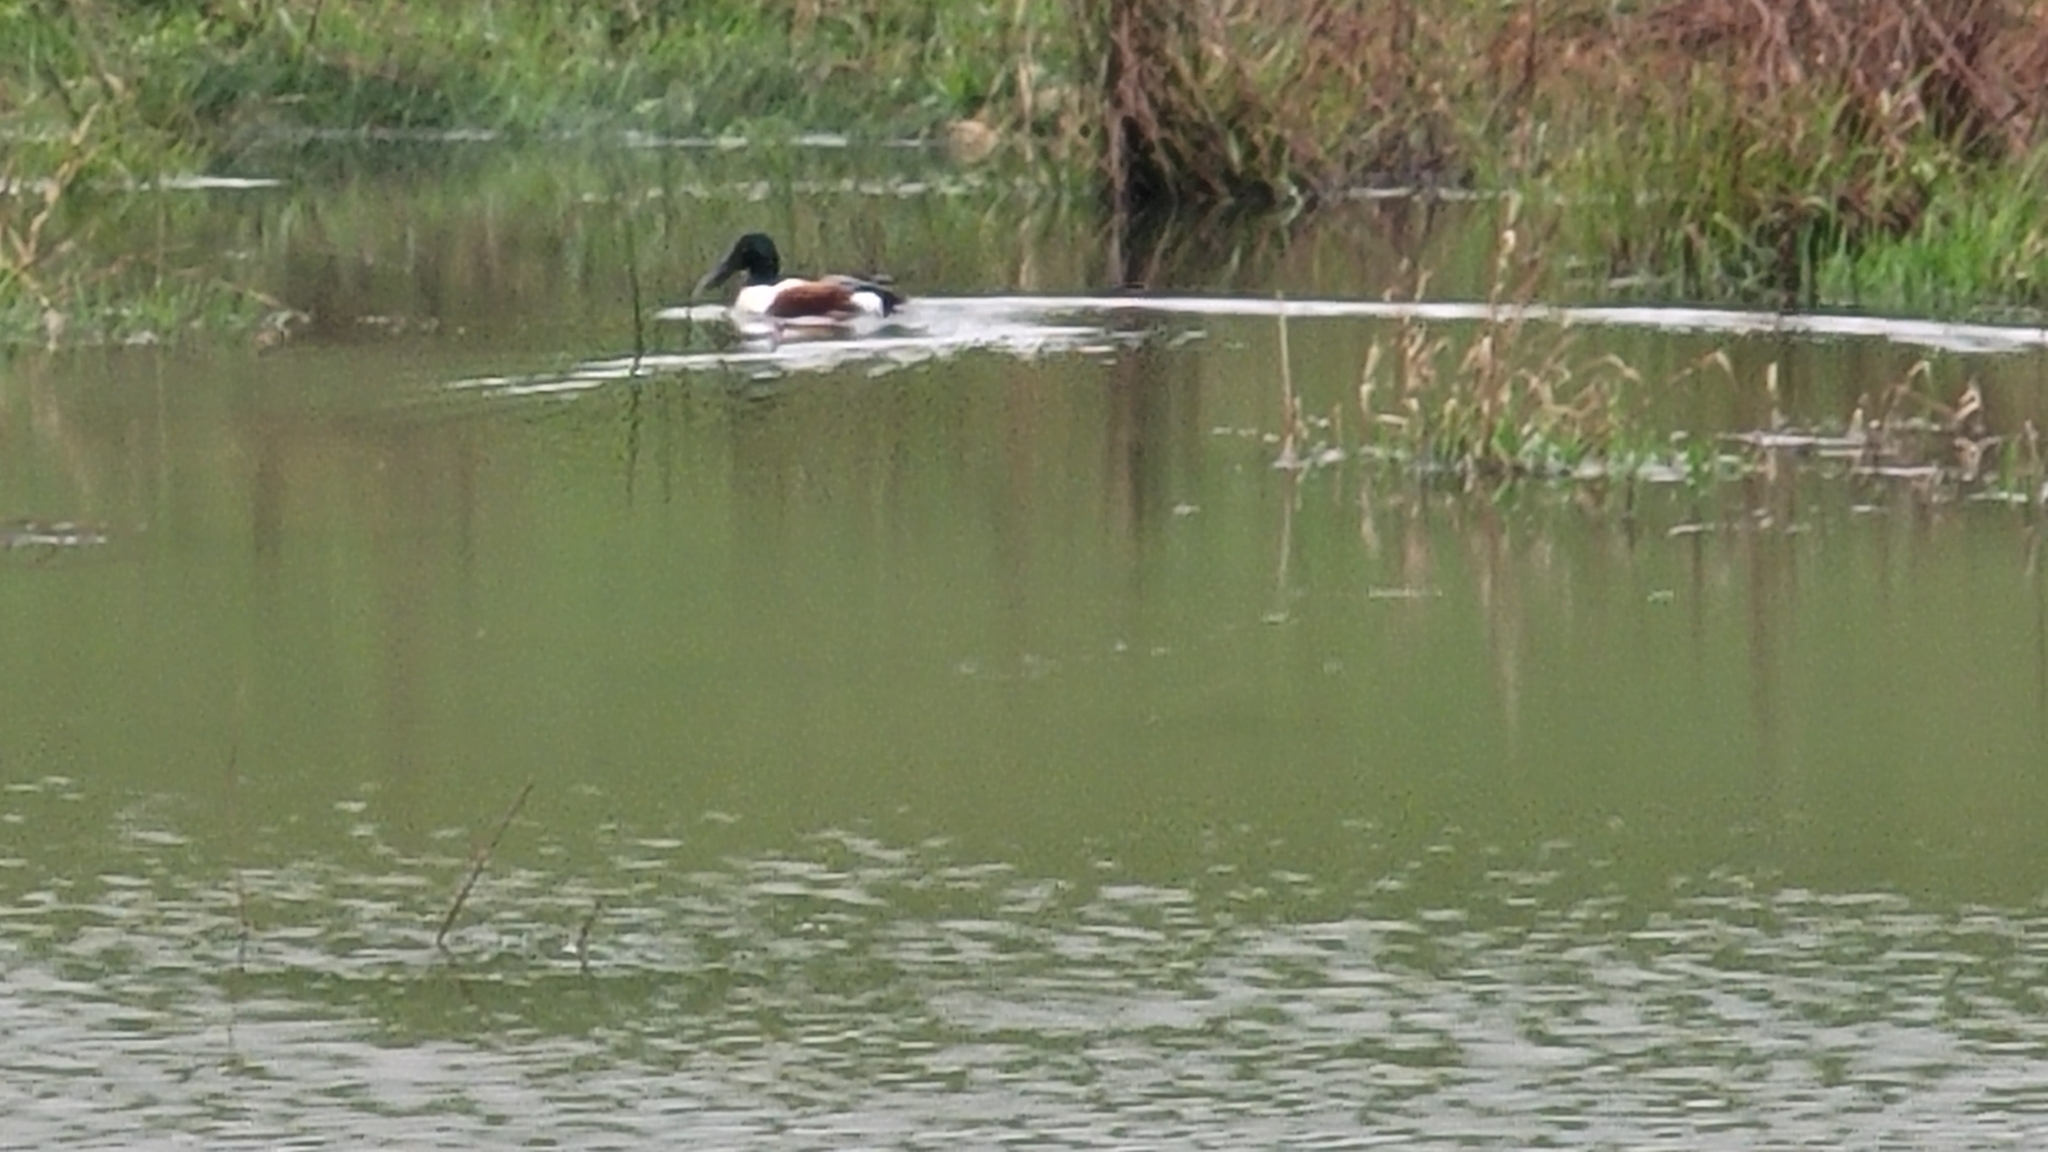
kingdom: Animalia
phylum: Chordata
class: Aves
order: Anseriformes
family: Anatidae
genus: Spatula
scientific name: Spatula clypeata
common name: Northern shoveler
